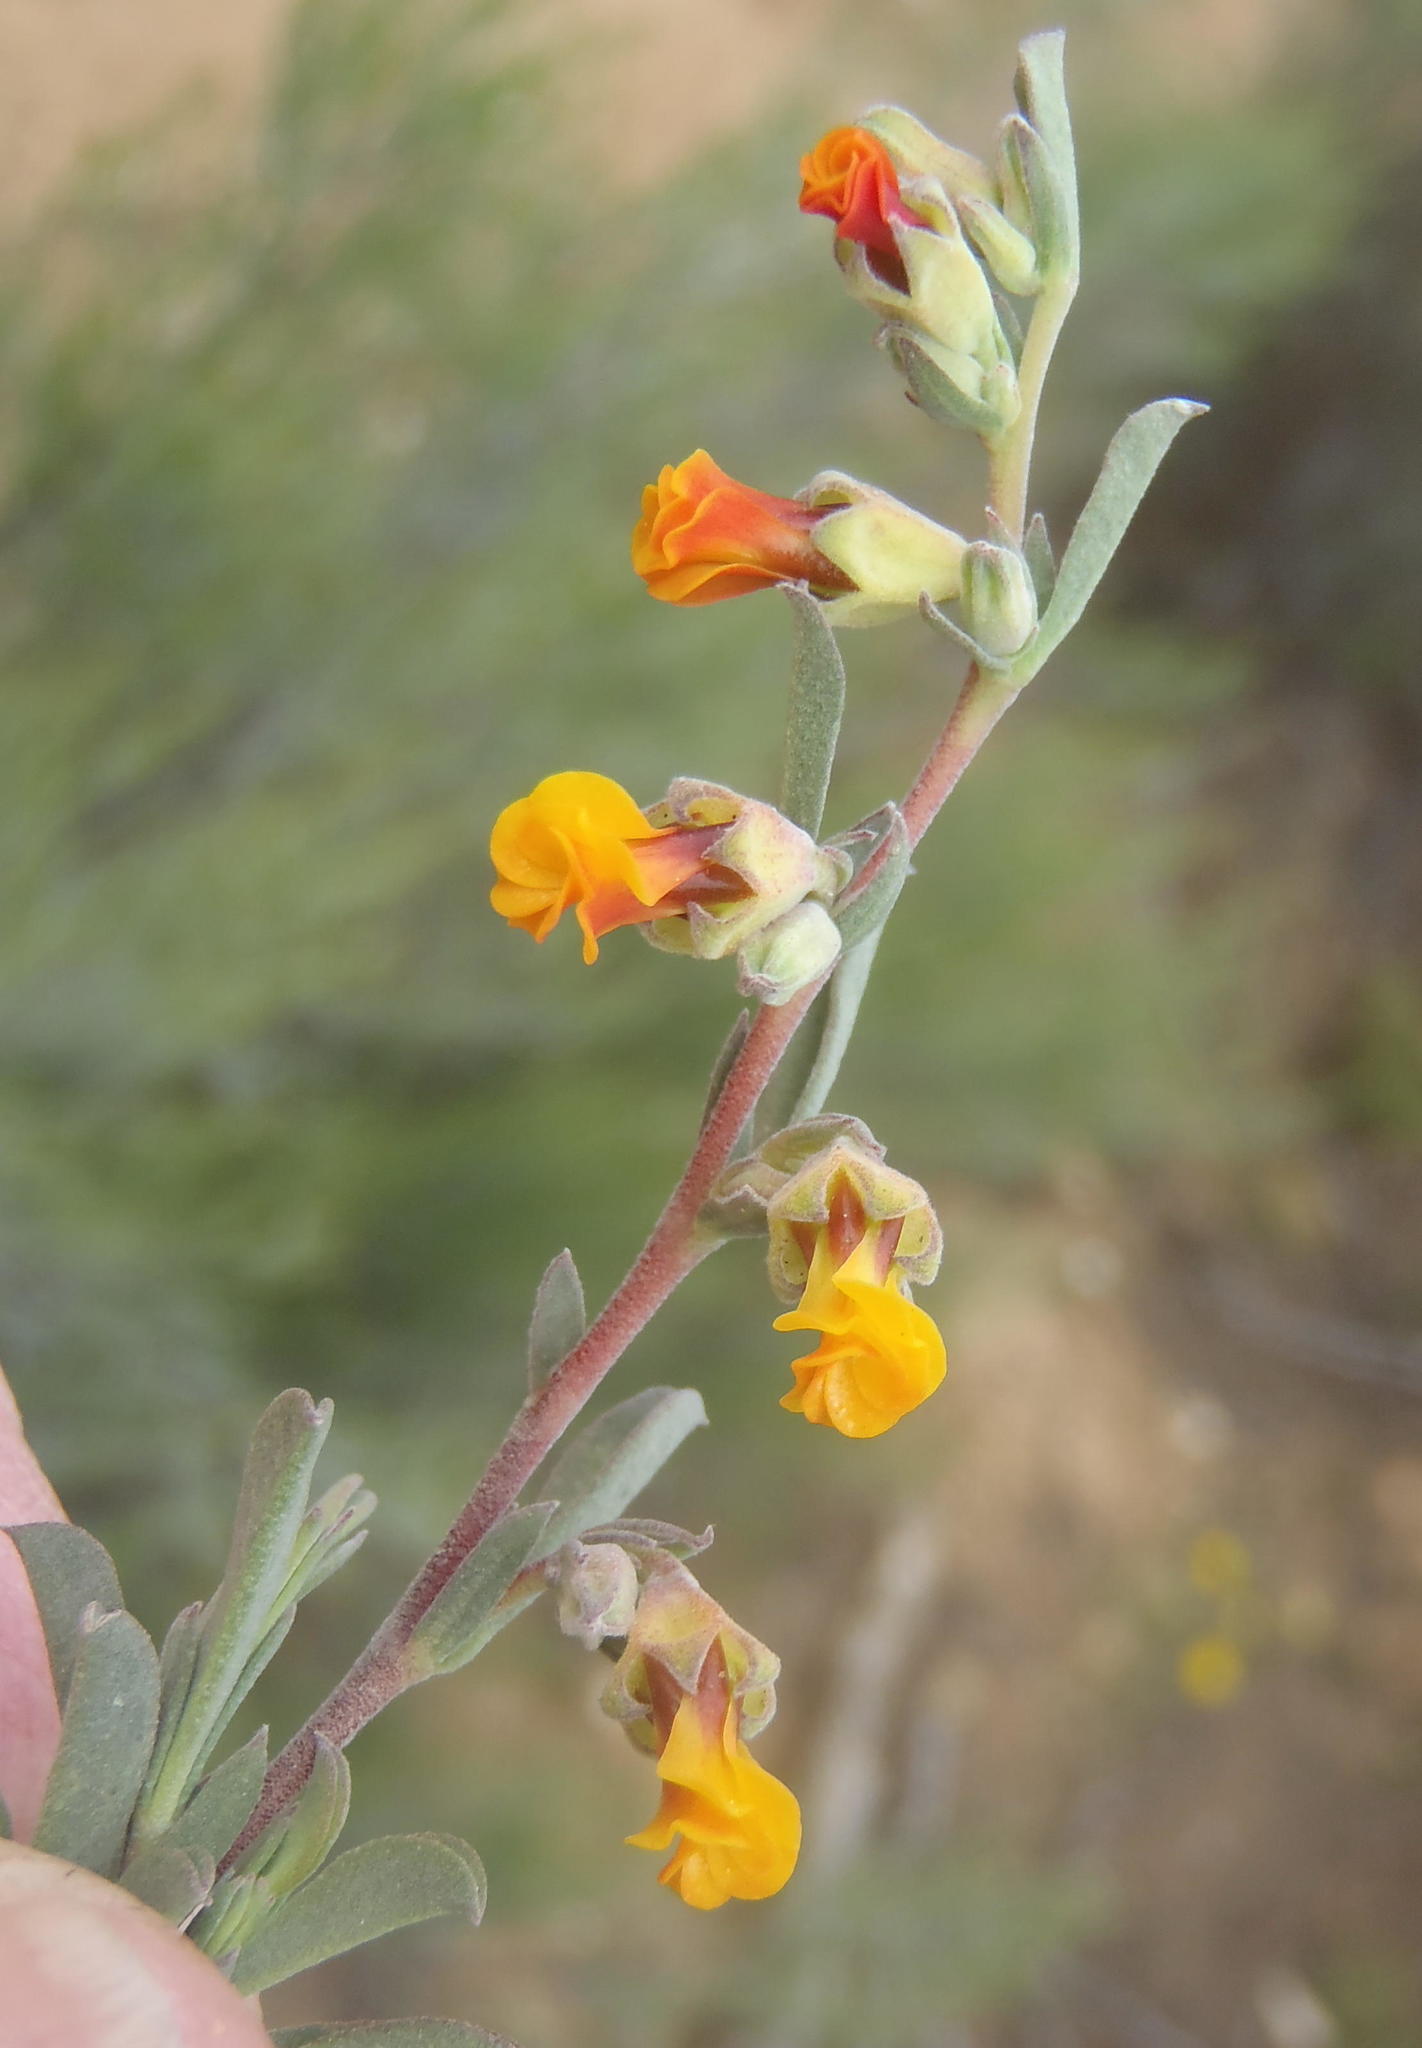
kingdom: Plantae
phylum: Tracheophyta
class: Magnoliopsida
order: Malvales
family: Malvaceae
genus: Hermannia
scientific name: Hermannia diversistipula
